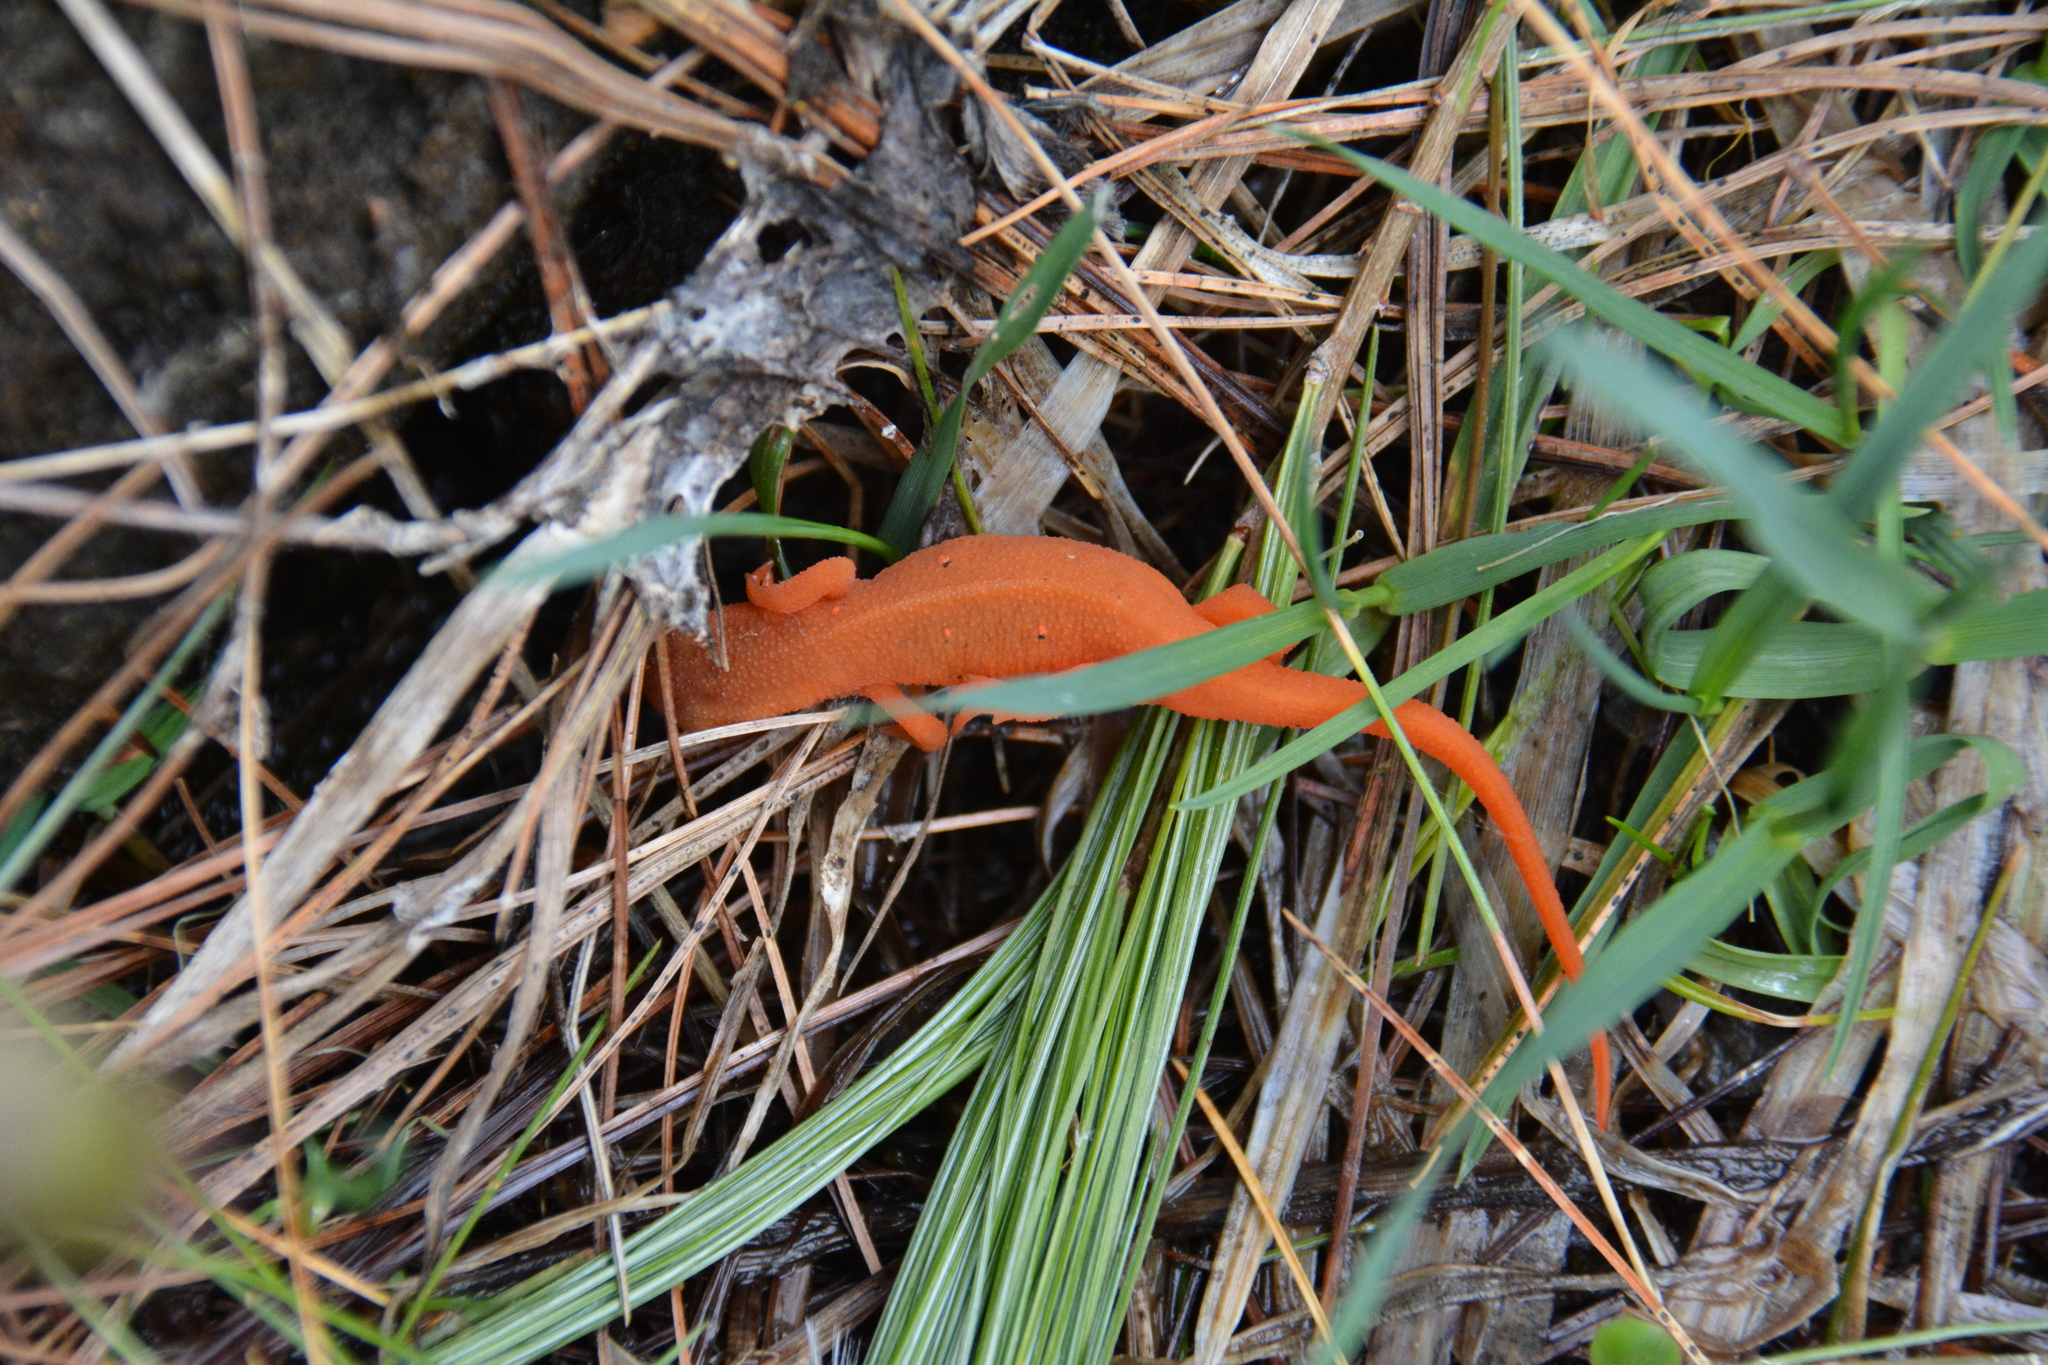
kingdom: Animalia
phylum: Chordata
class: Amphibia
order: Caudata
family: Salamandridae
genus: Notophthalmus
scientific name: Notophthalmus viridescens
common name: Eastern newt
